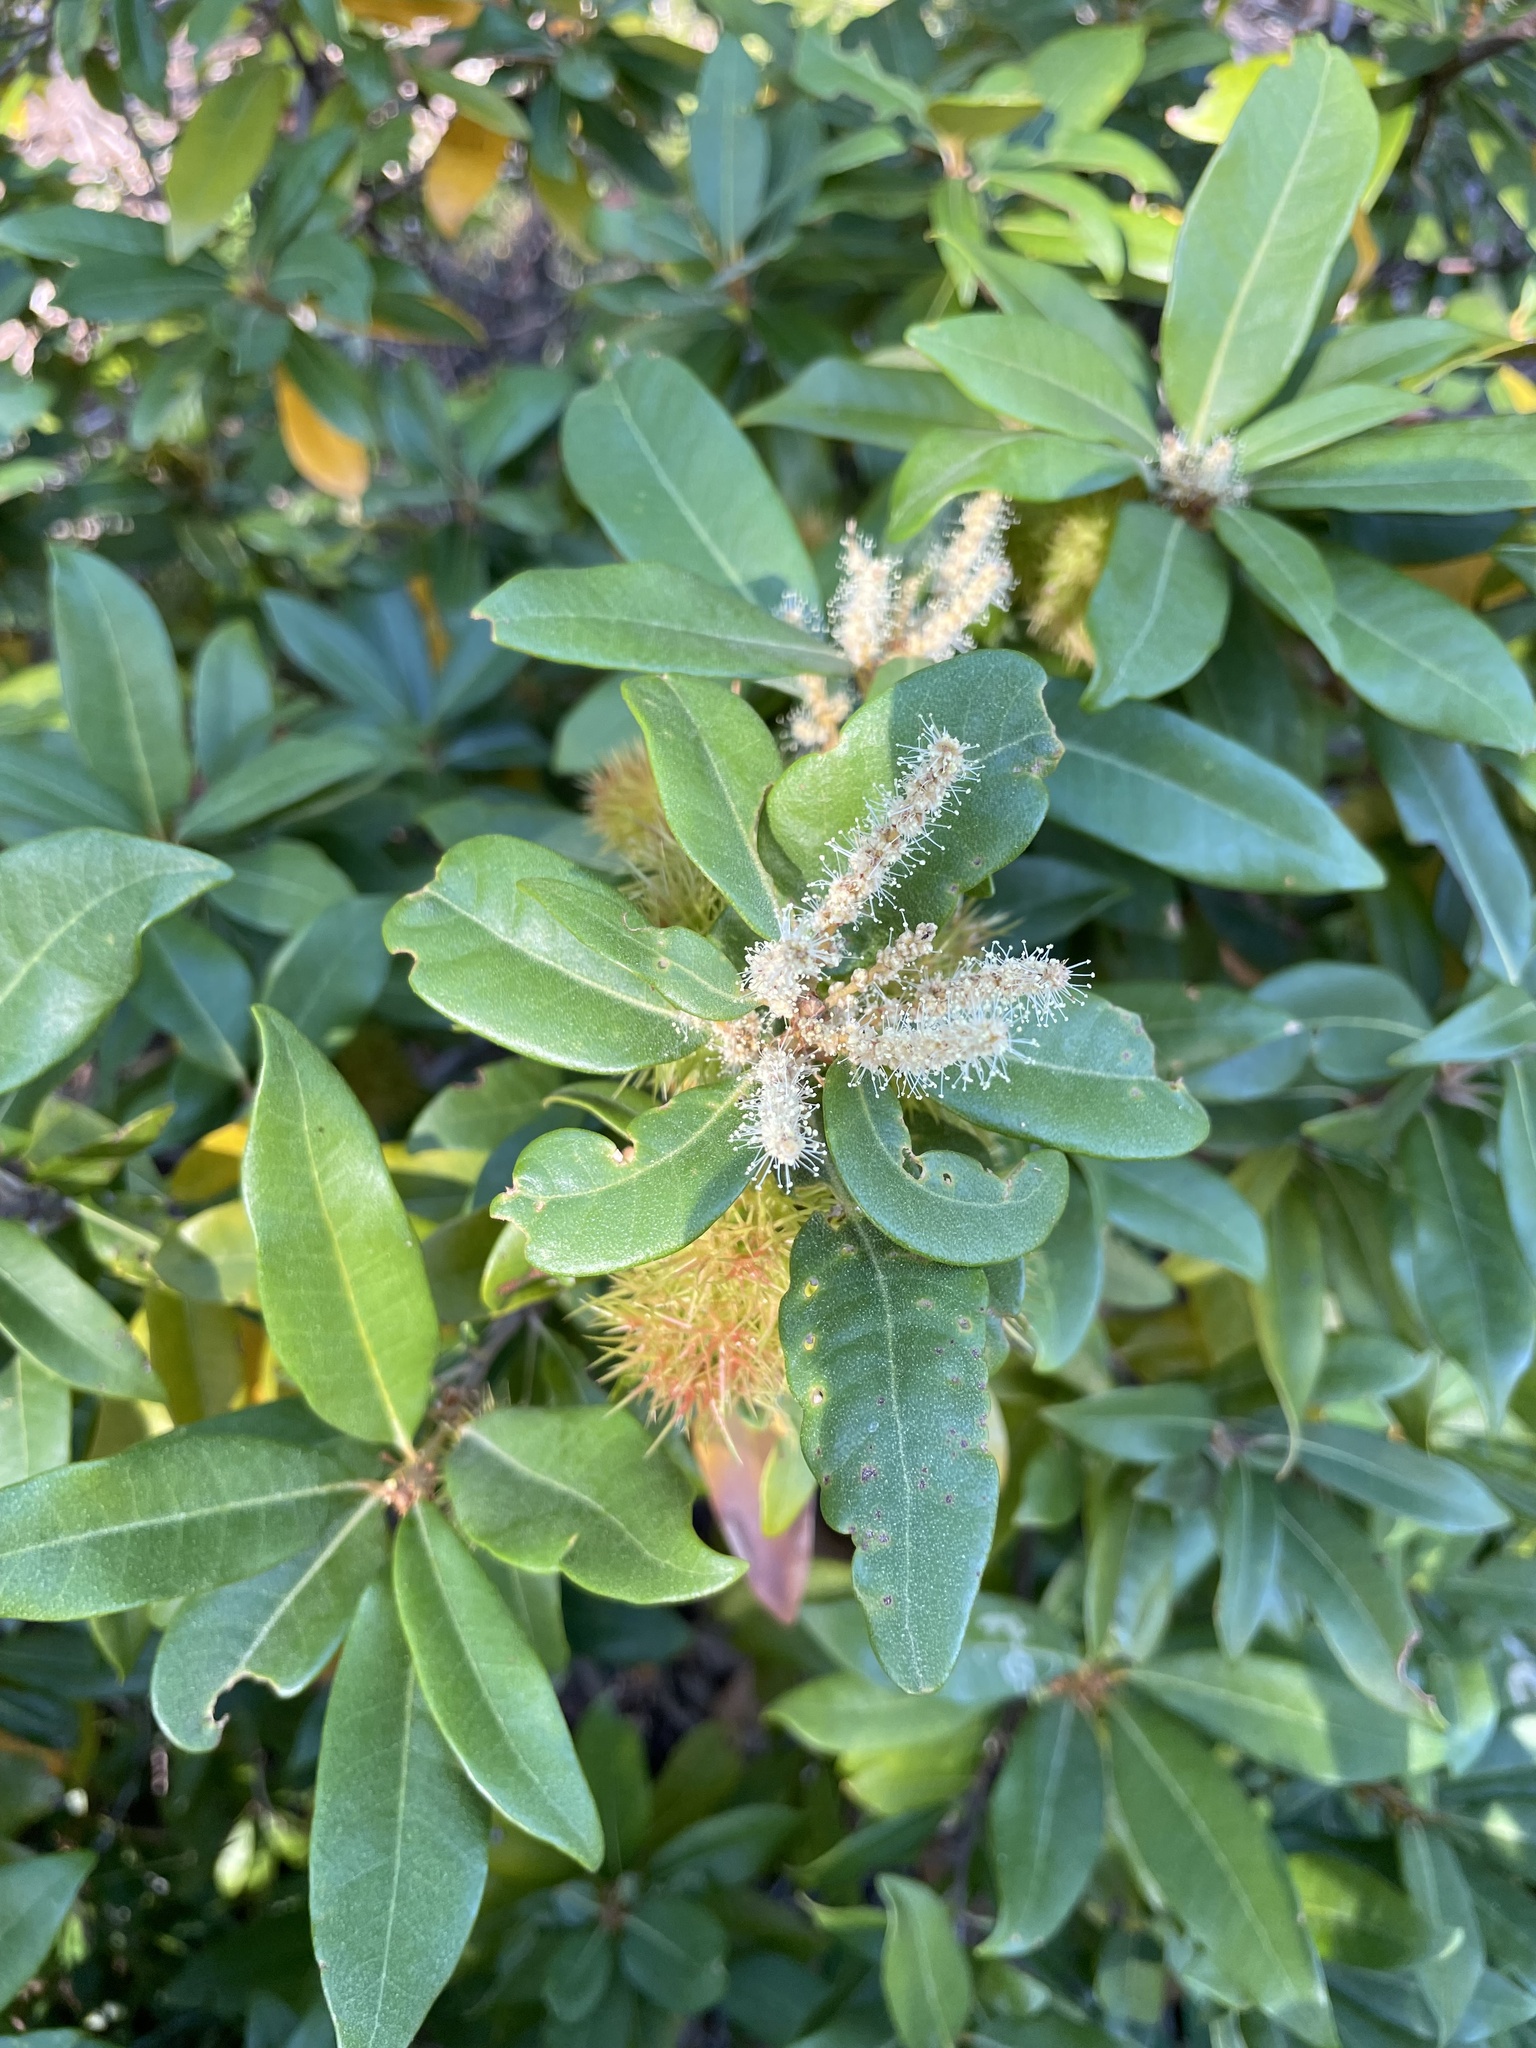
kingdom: Plantae
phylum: Tracheophyta
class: Magnoliopsida
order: Fagales
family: Fagaceae
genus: Chrysolepis
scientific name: Chrysolepis chrysophylla
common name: Giant chinquapin
